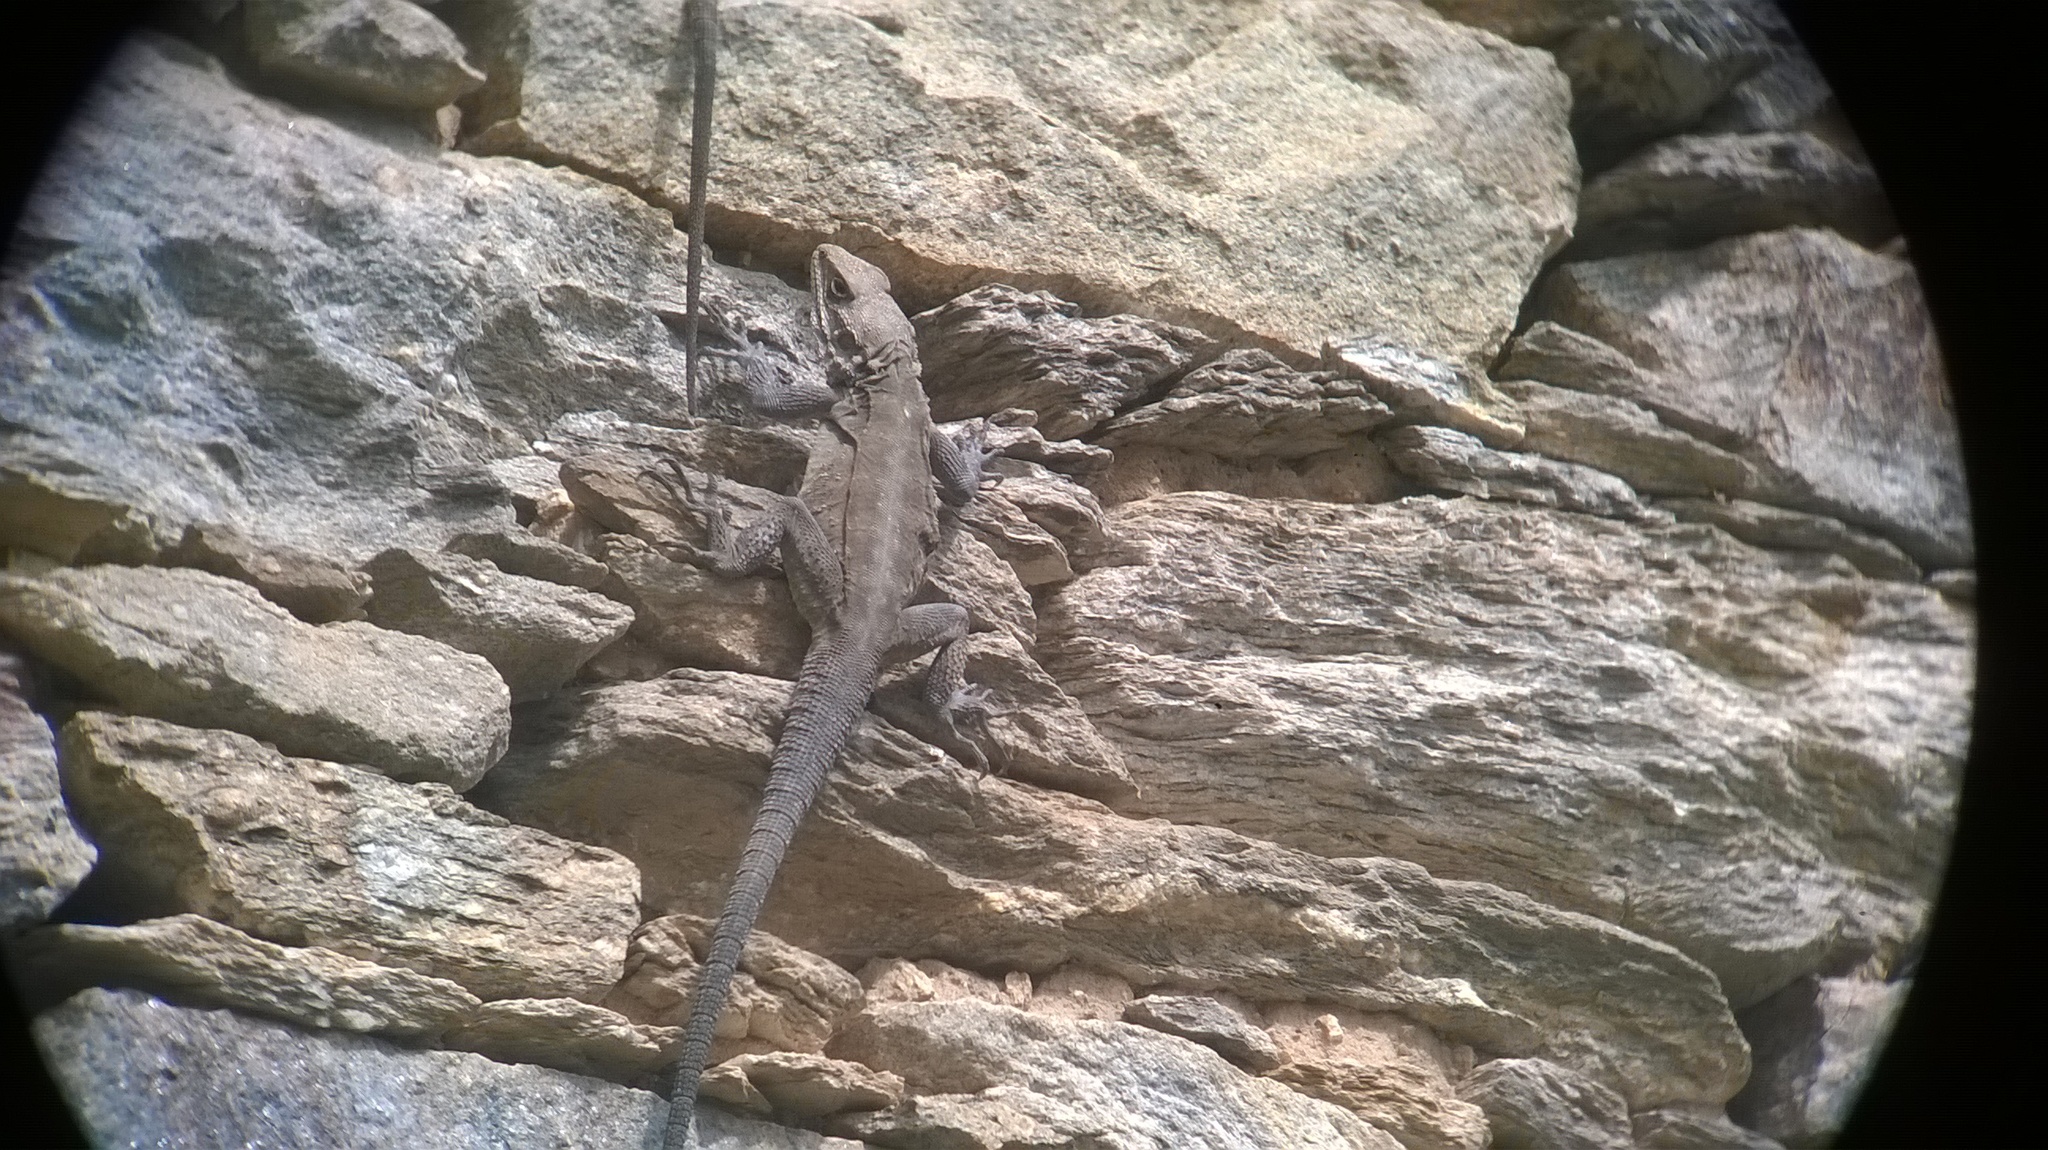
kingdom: Animalia
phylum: Chordata
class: Squamata
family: Agamidae
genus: Laudakia
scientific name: Laudakia tuberculata
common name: Kashmir rock agama
